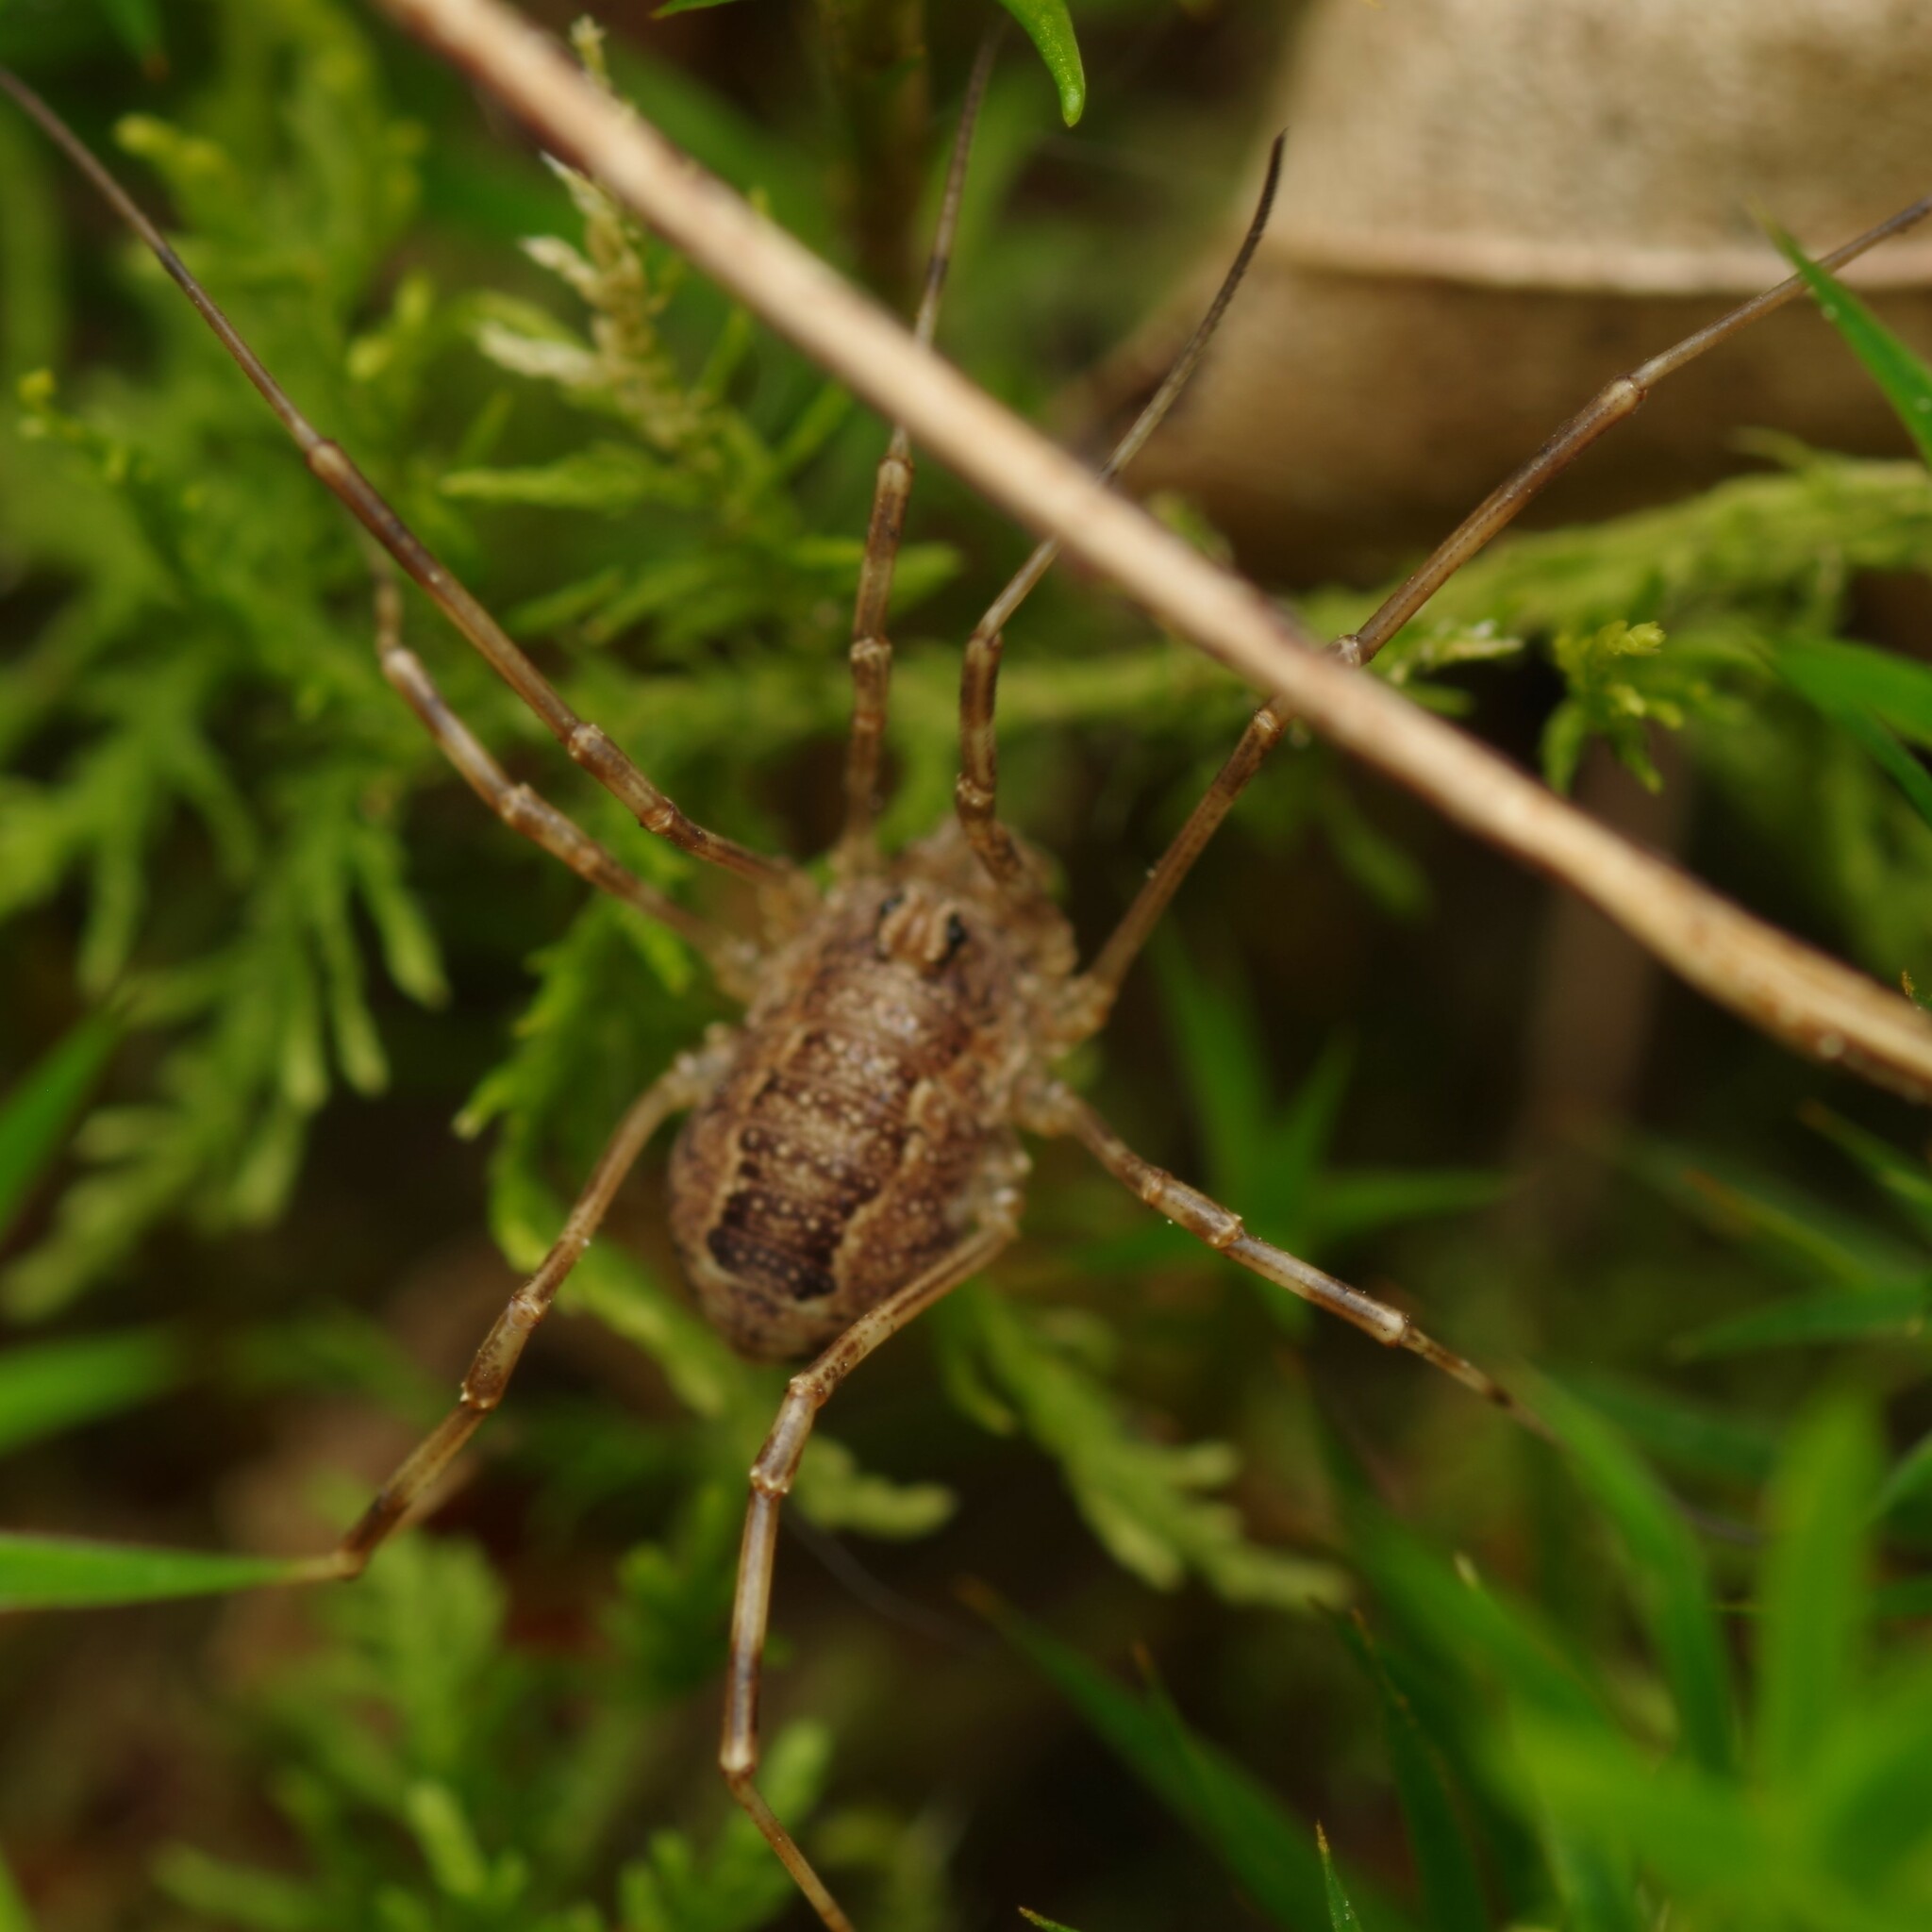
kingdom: Animalia
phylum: Arthropoda
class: Arachnida
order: Opiliones
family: Phalangiidae
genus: Rilaena
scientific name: Rilaena triangularis
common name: Spring harvestman
